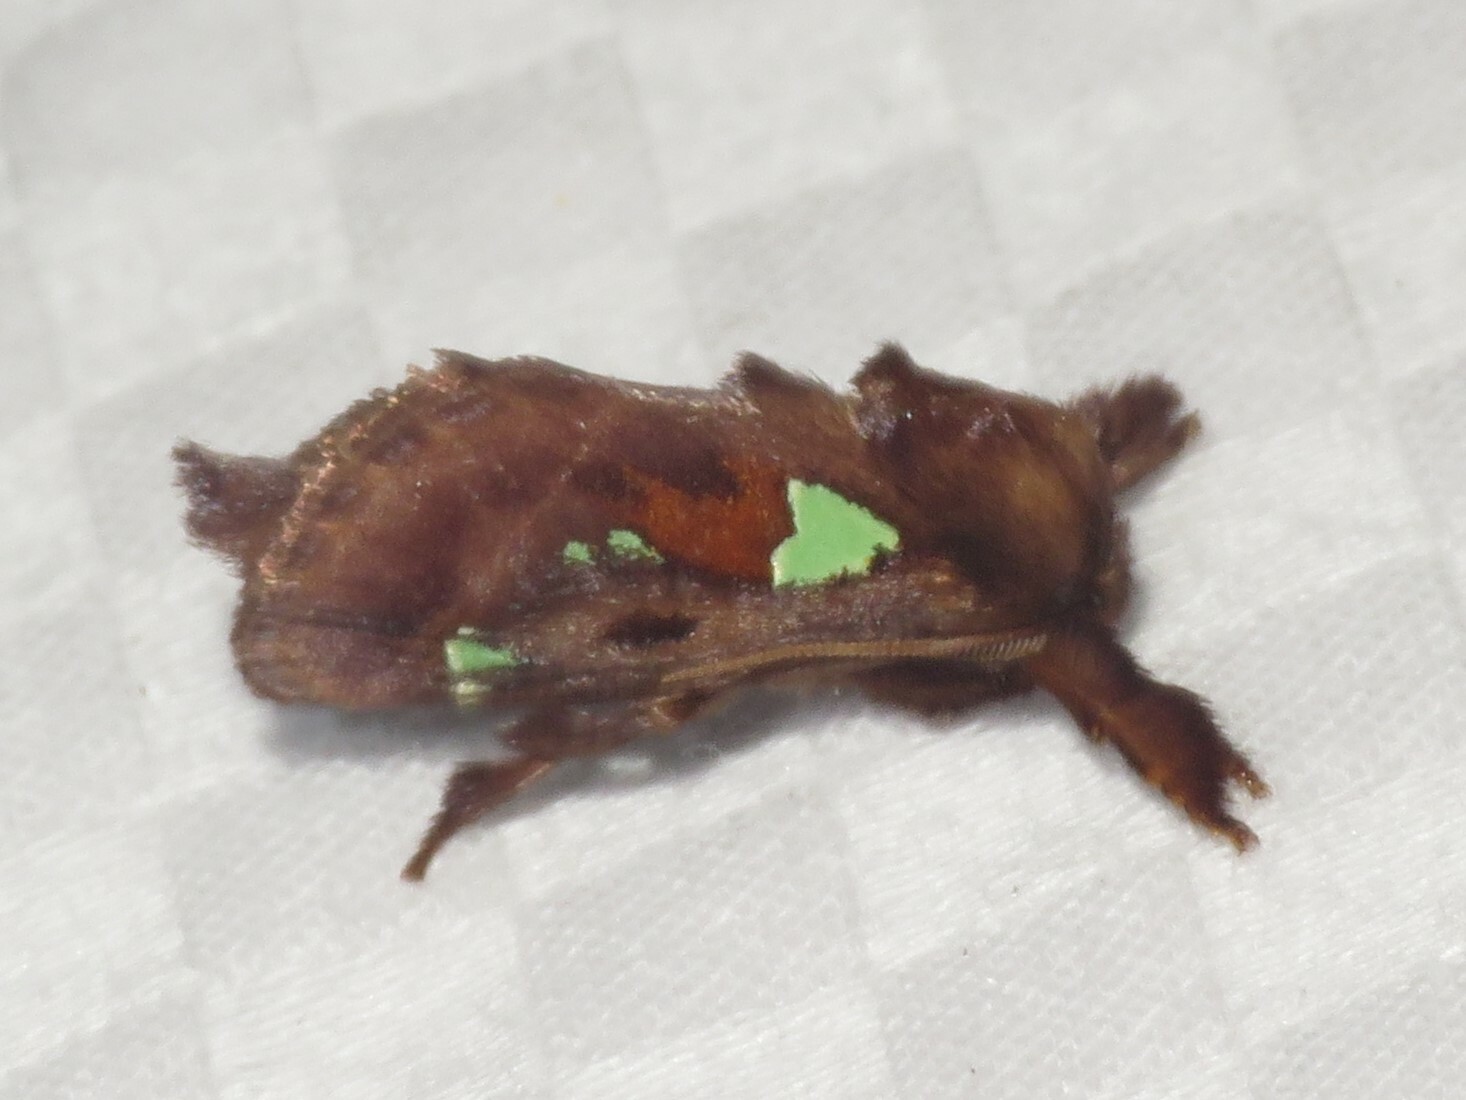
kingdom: Animalia
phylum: Arthropoda
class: Insecta
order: Lepidoptera
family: Limacodidae
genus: Euclea
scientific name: Euclea delphinii
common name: Spiny oak-slug moth
